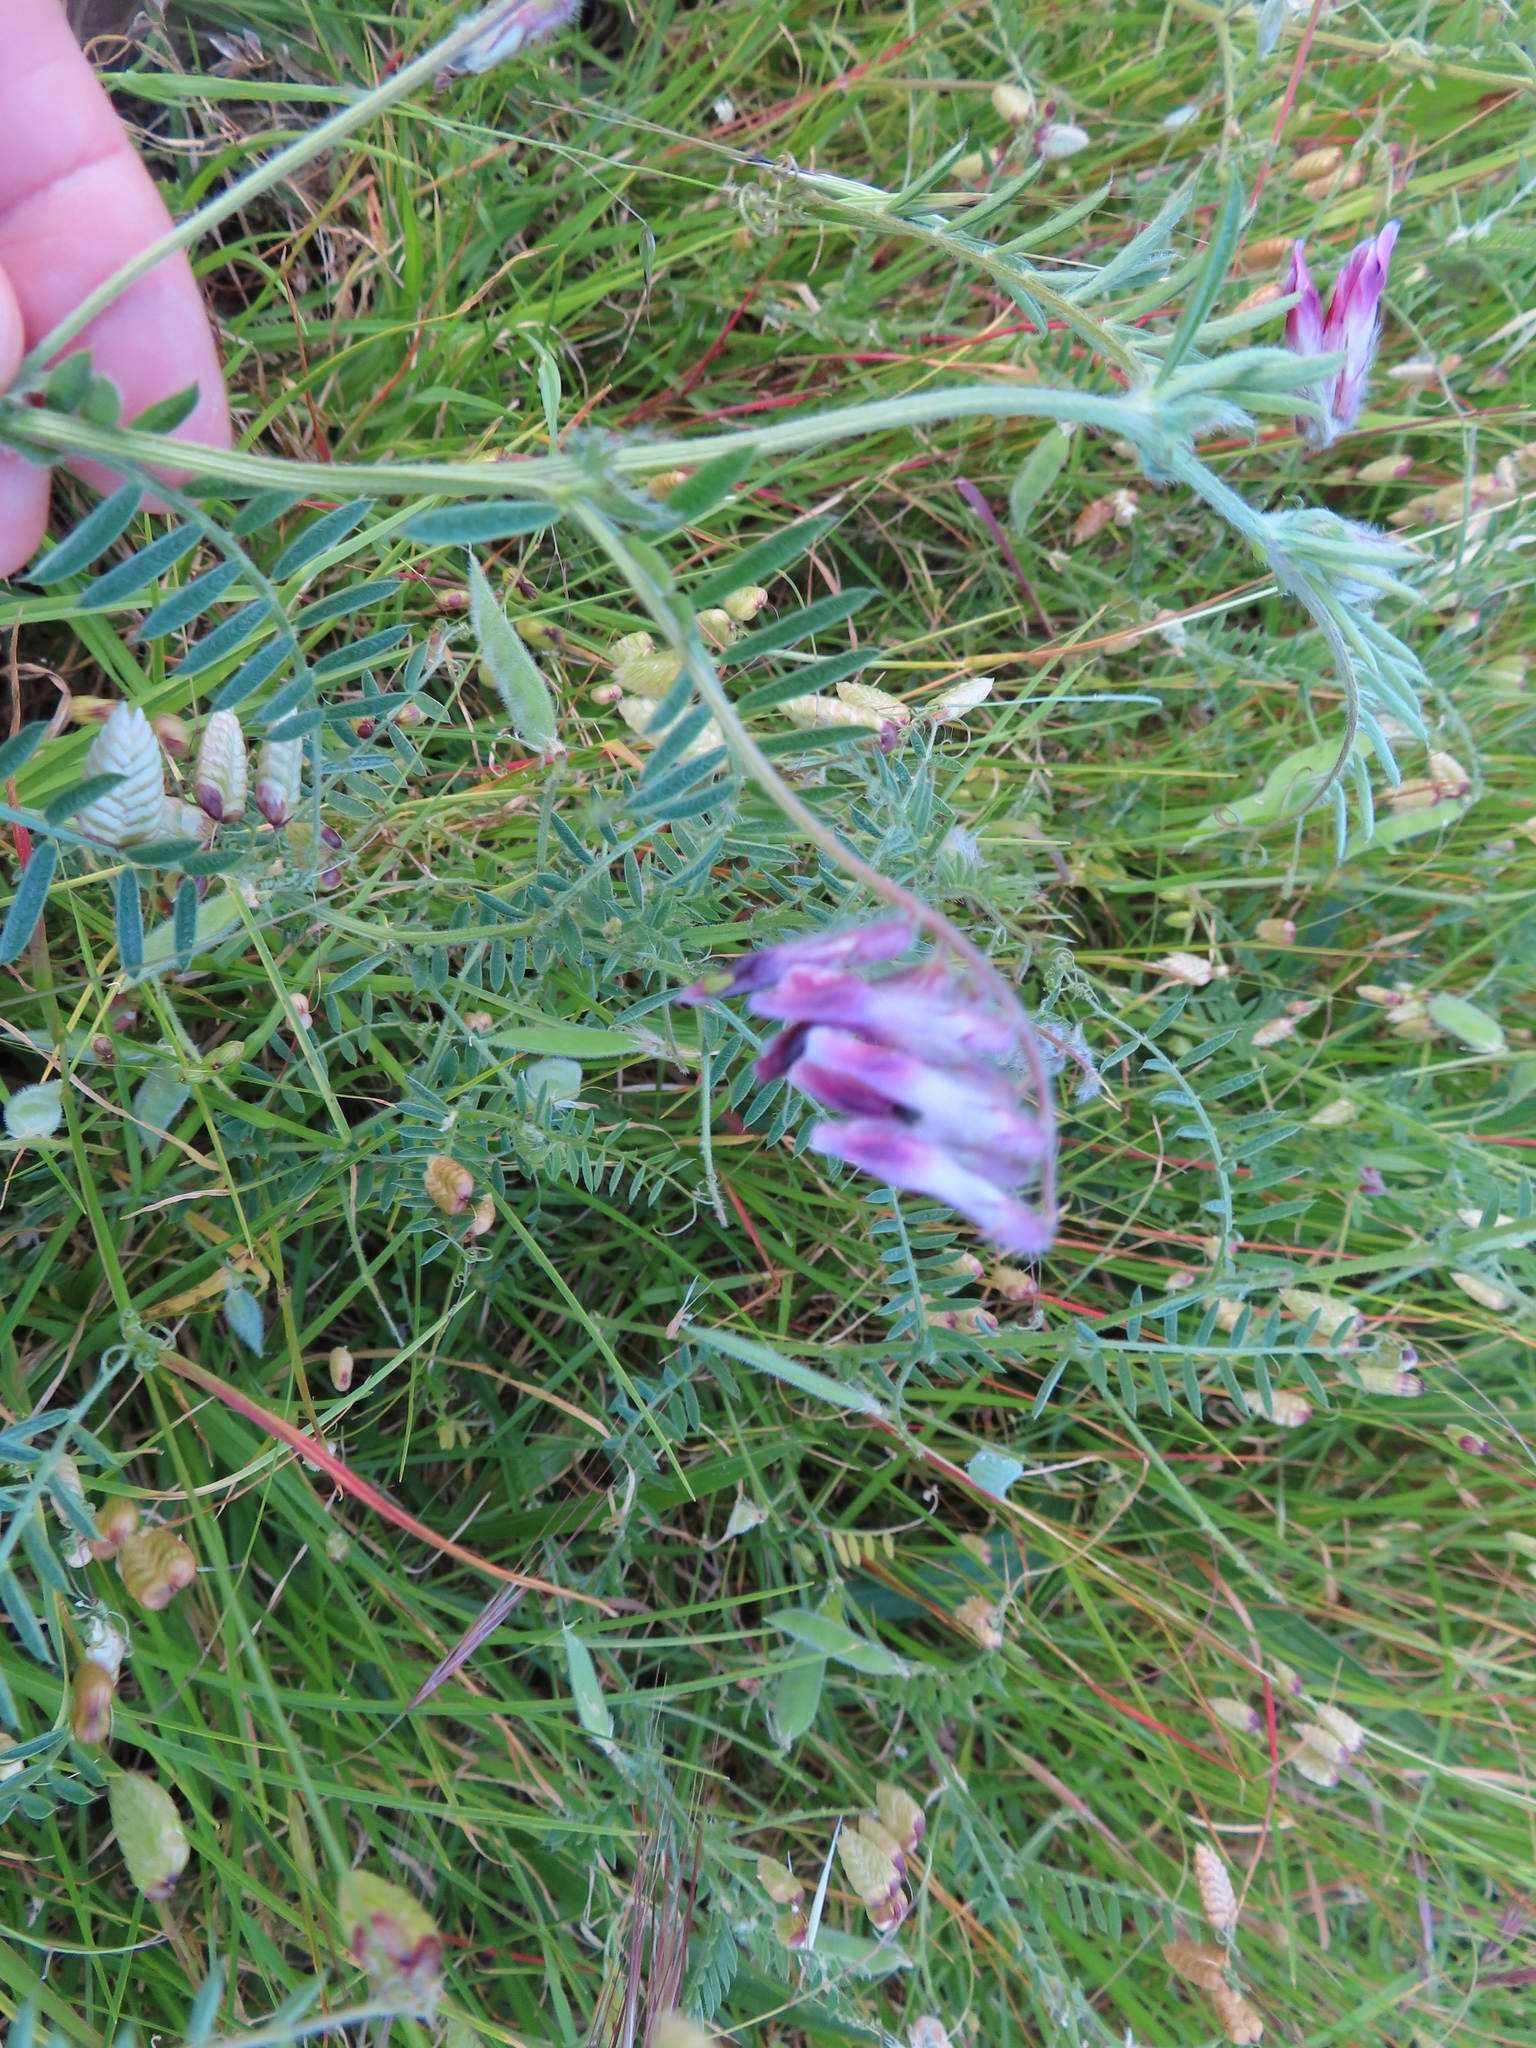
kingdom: Plantae
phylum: Tracheophyta
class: Magnoliopsida
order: Fabales
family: Fabaceae
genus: Vicia
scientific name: Vicia benghalensis
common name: Purple vetch
